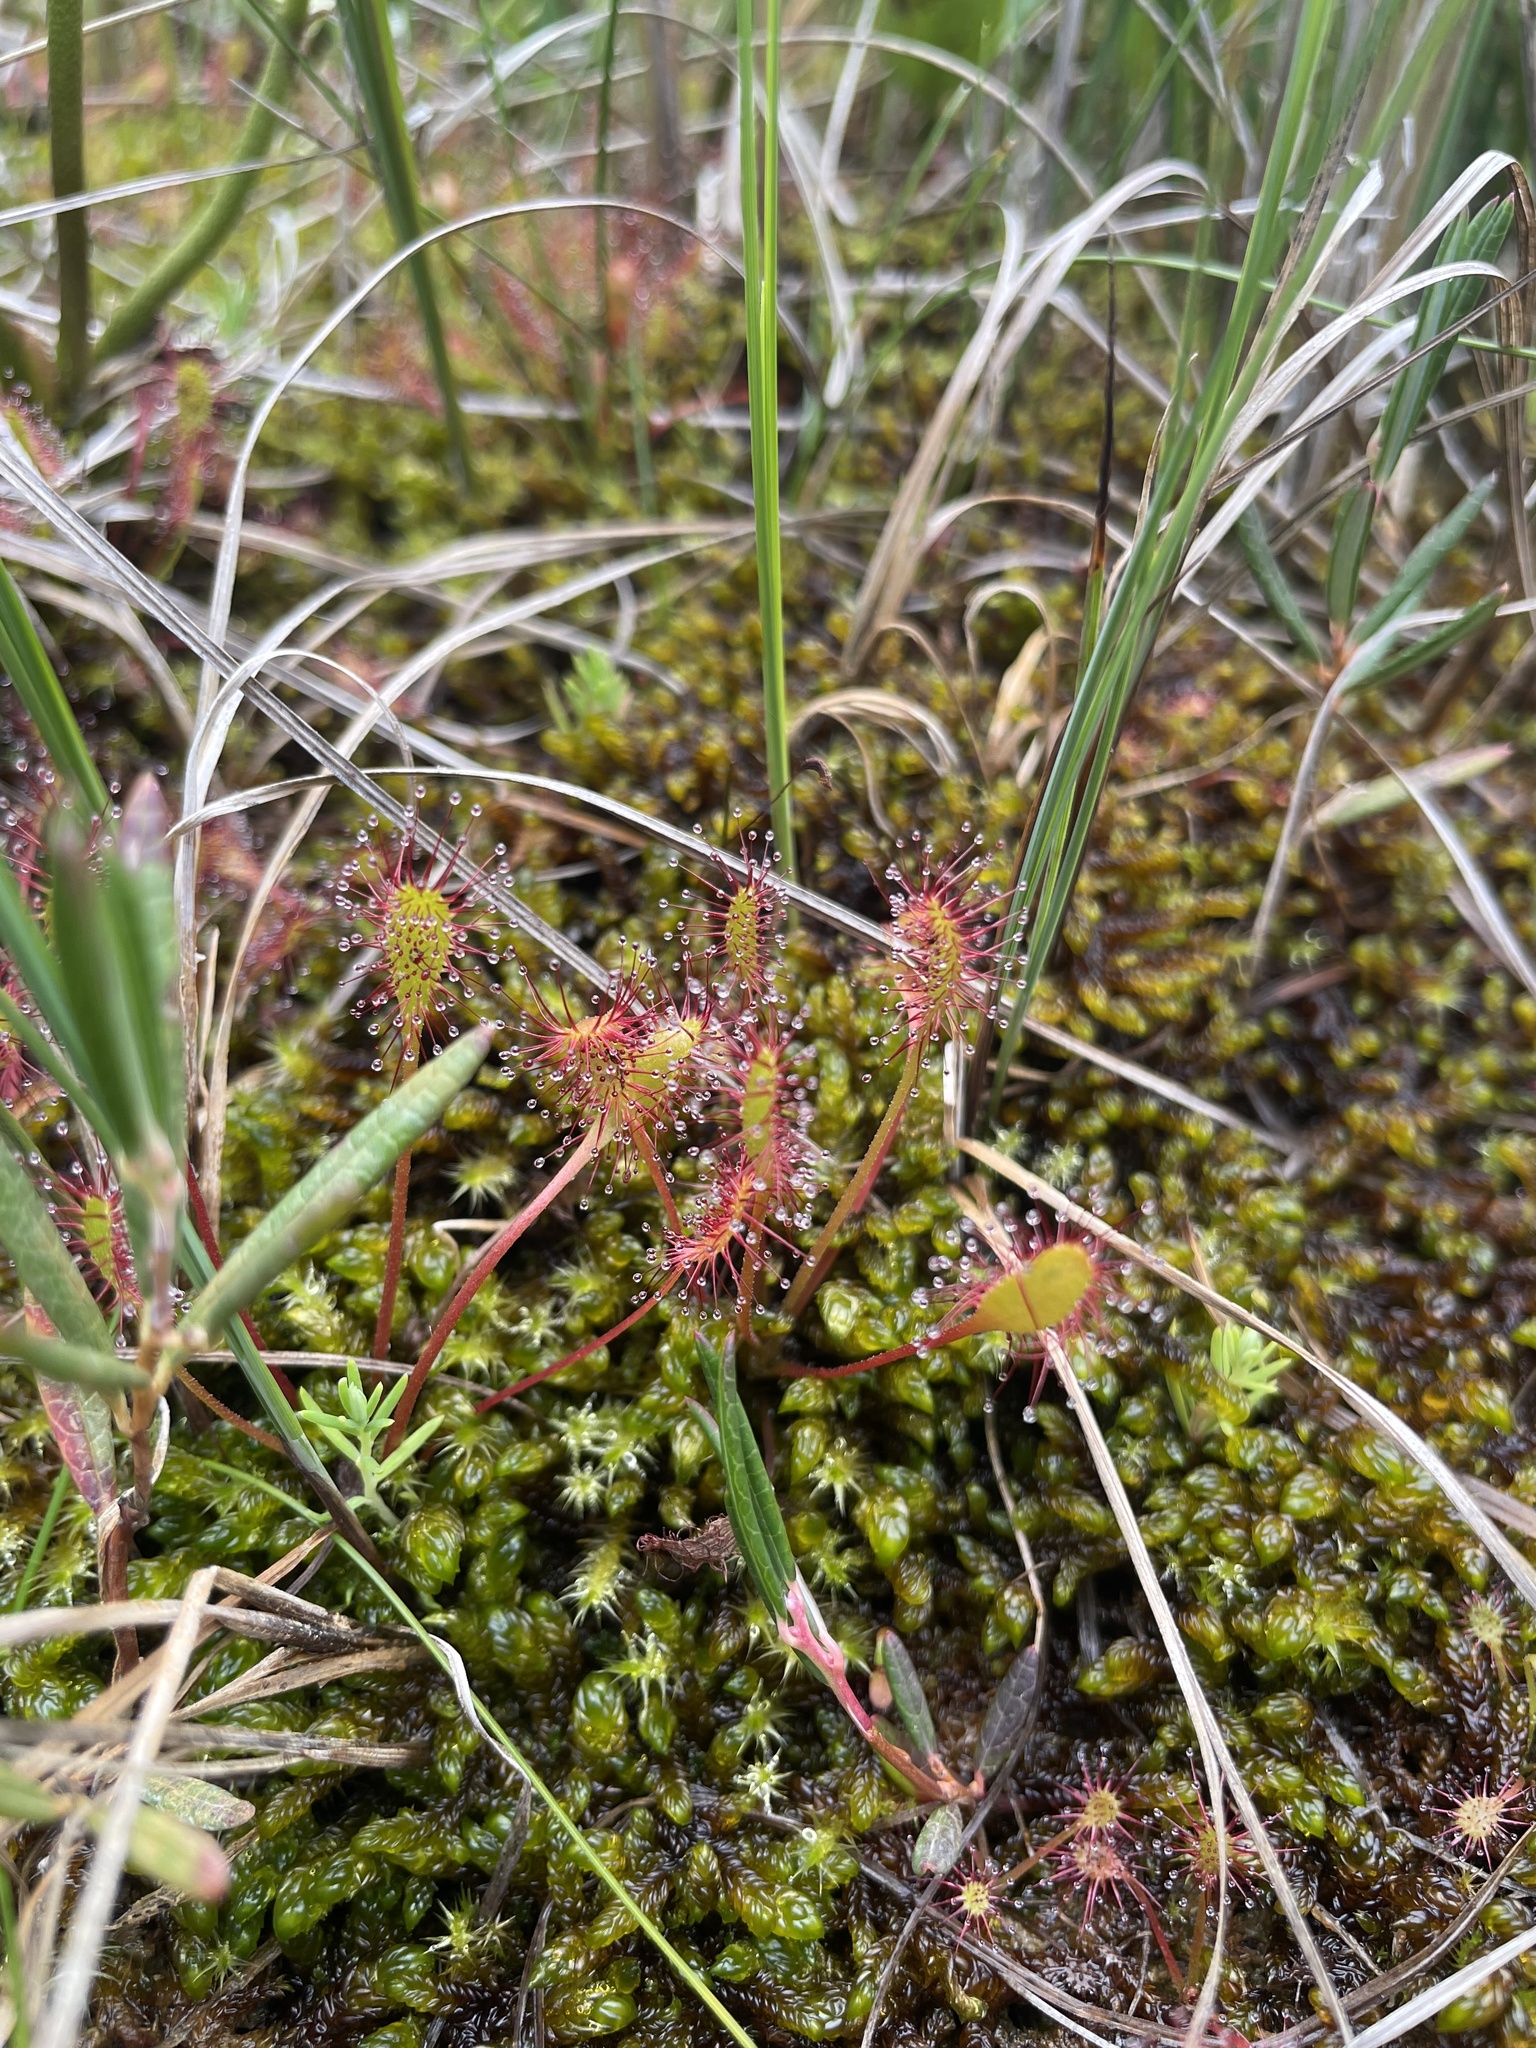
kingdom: Plantae
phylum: Tracheophyta
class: Magnoliopsida
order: Caryophyllales
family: Droseraceae
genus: Drosera
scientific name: Drosera anglica
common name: Great sundew
